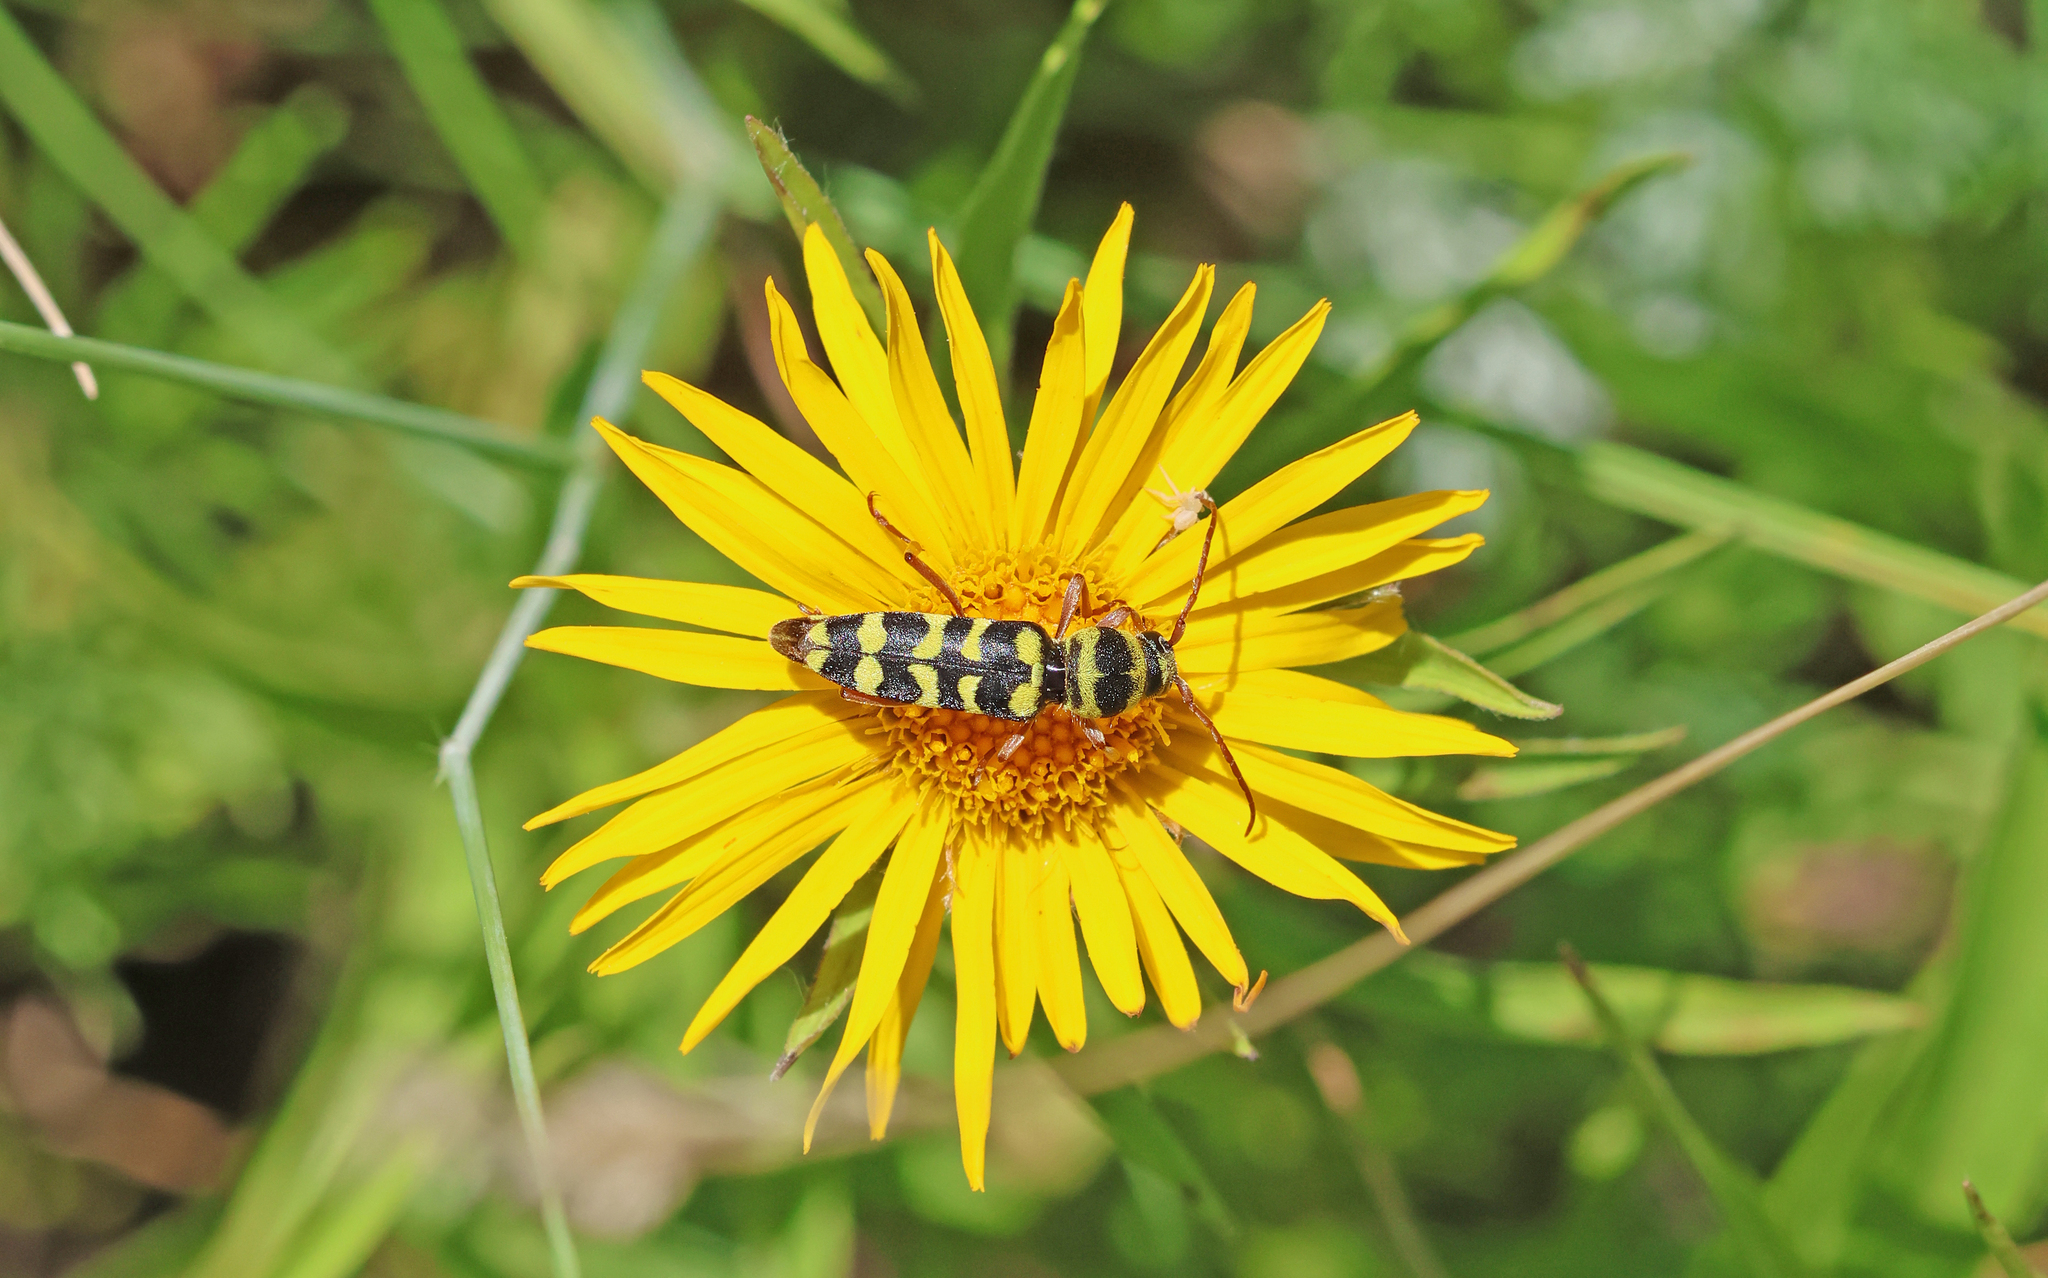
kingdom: Animalia
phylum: Arthropoda
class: Insecta
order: Coleoptera
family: Cerambycidae
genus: Plagionotus
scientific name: Plagionotus floralis
